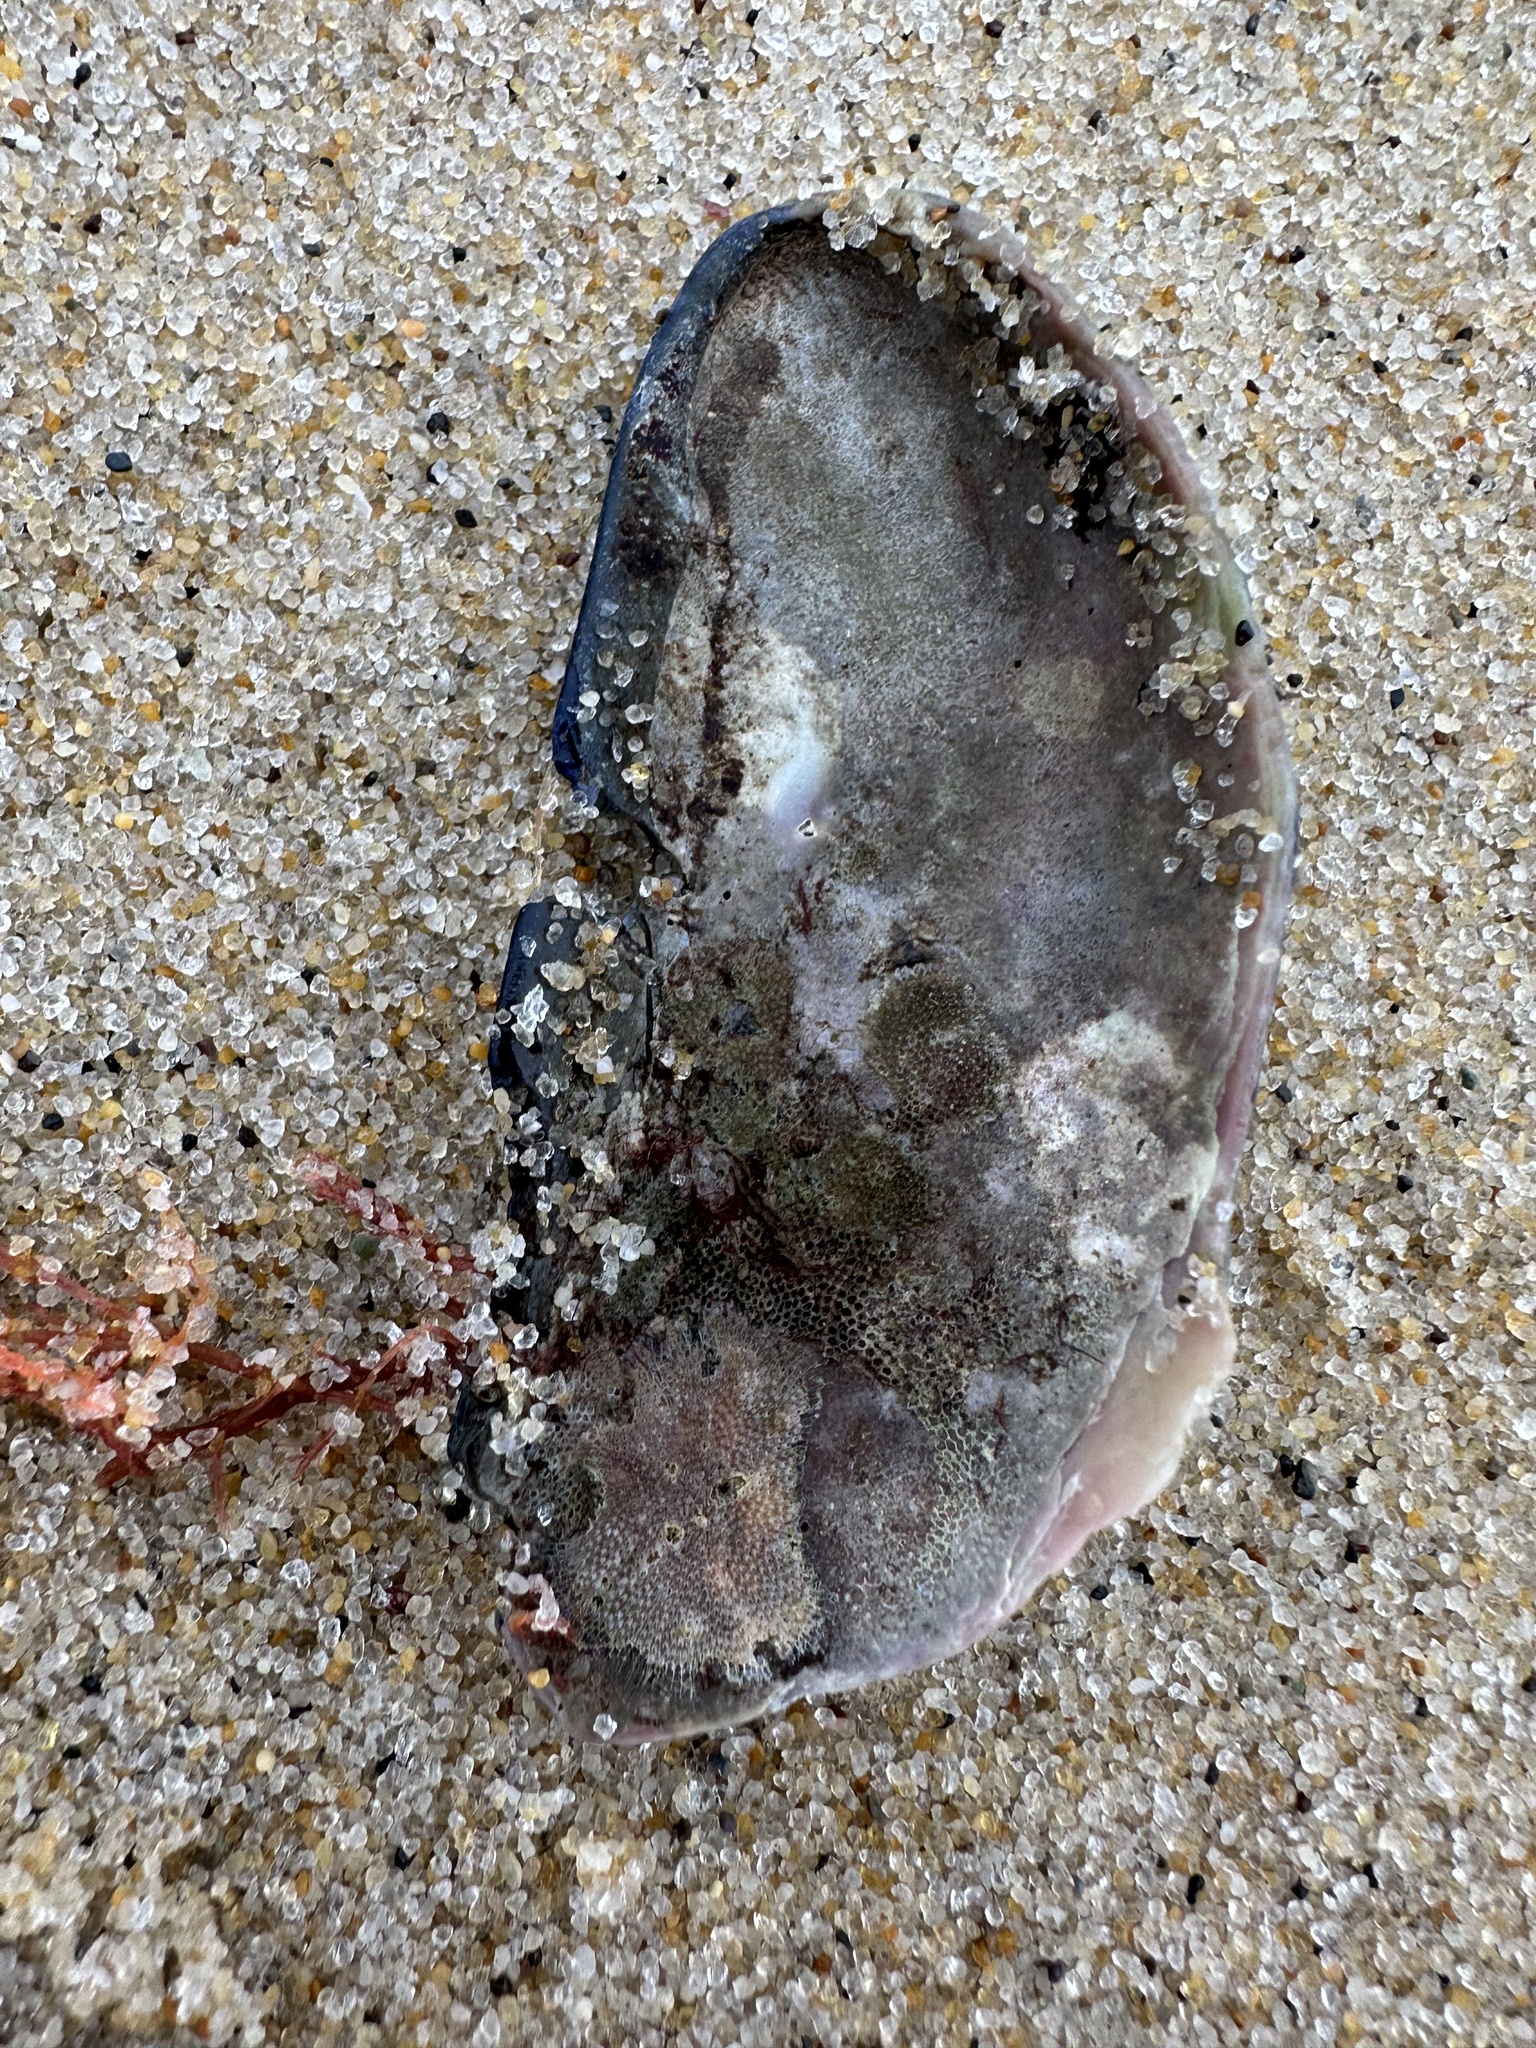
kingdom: Animalia
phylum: Mollusca
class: Bivalvia
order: Mytilida
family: Mytilidae
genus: Mytilus
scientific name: Mytilus edulis
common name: Blue mussel
